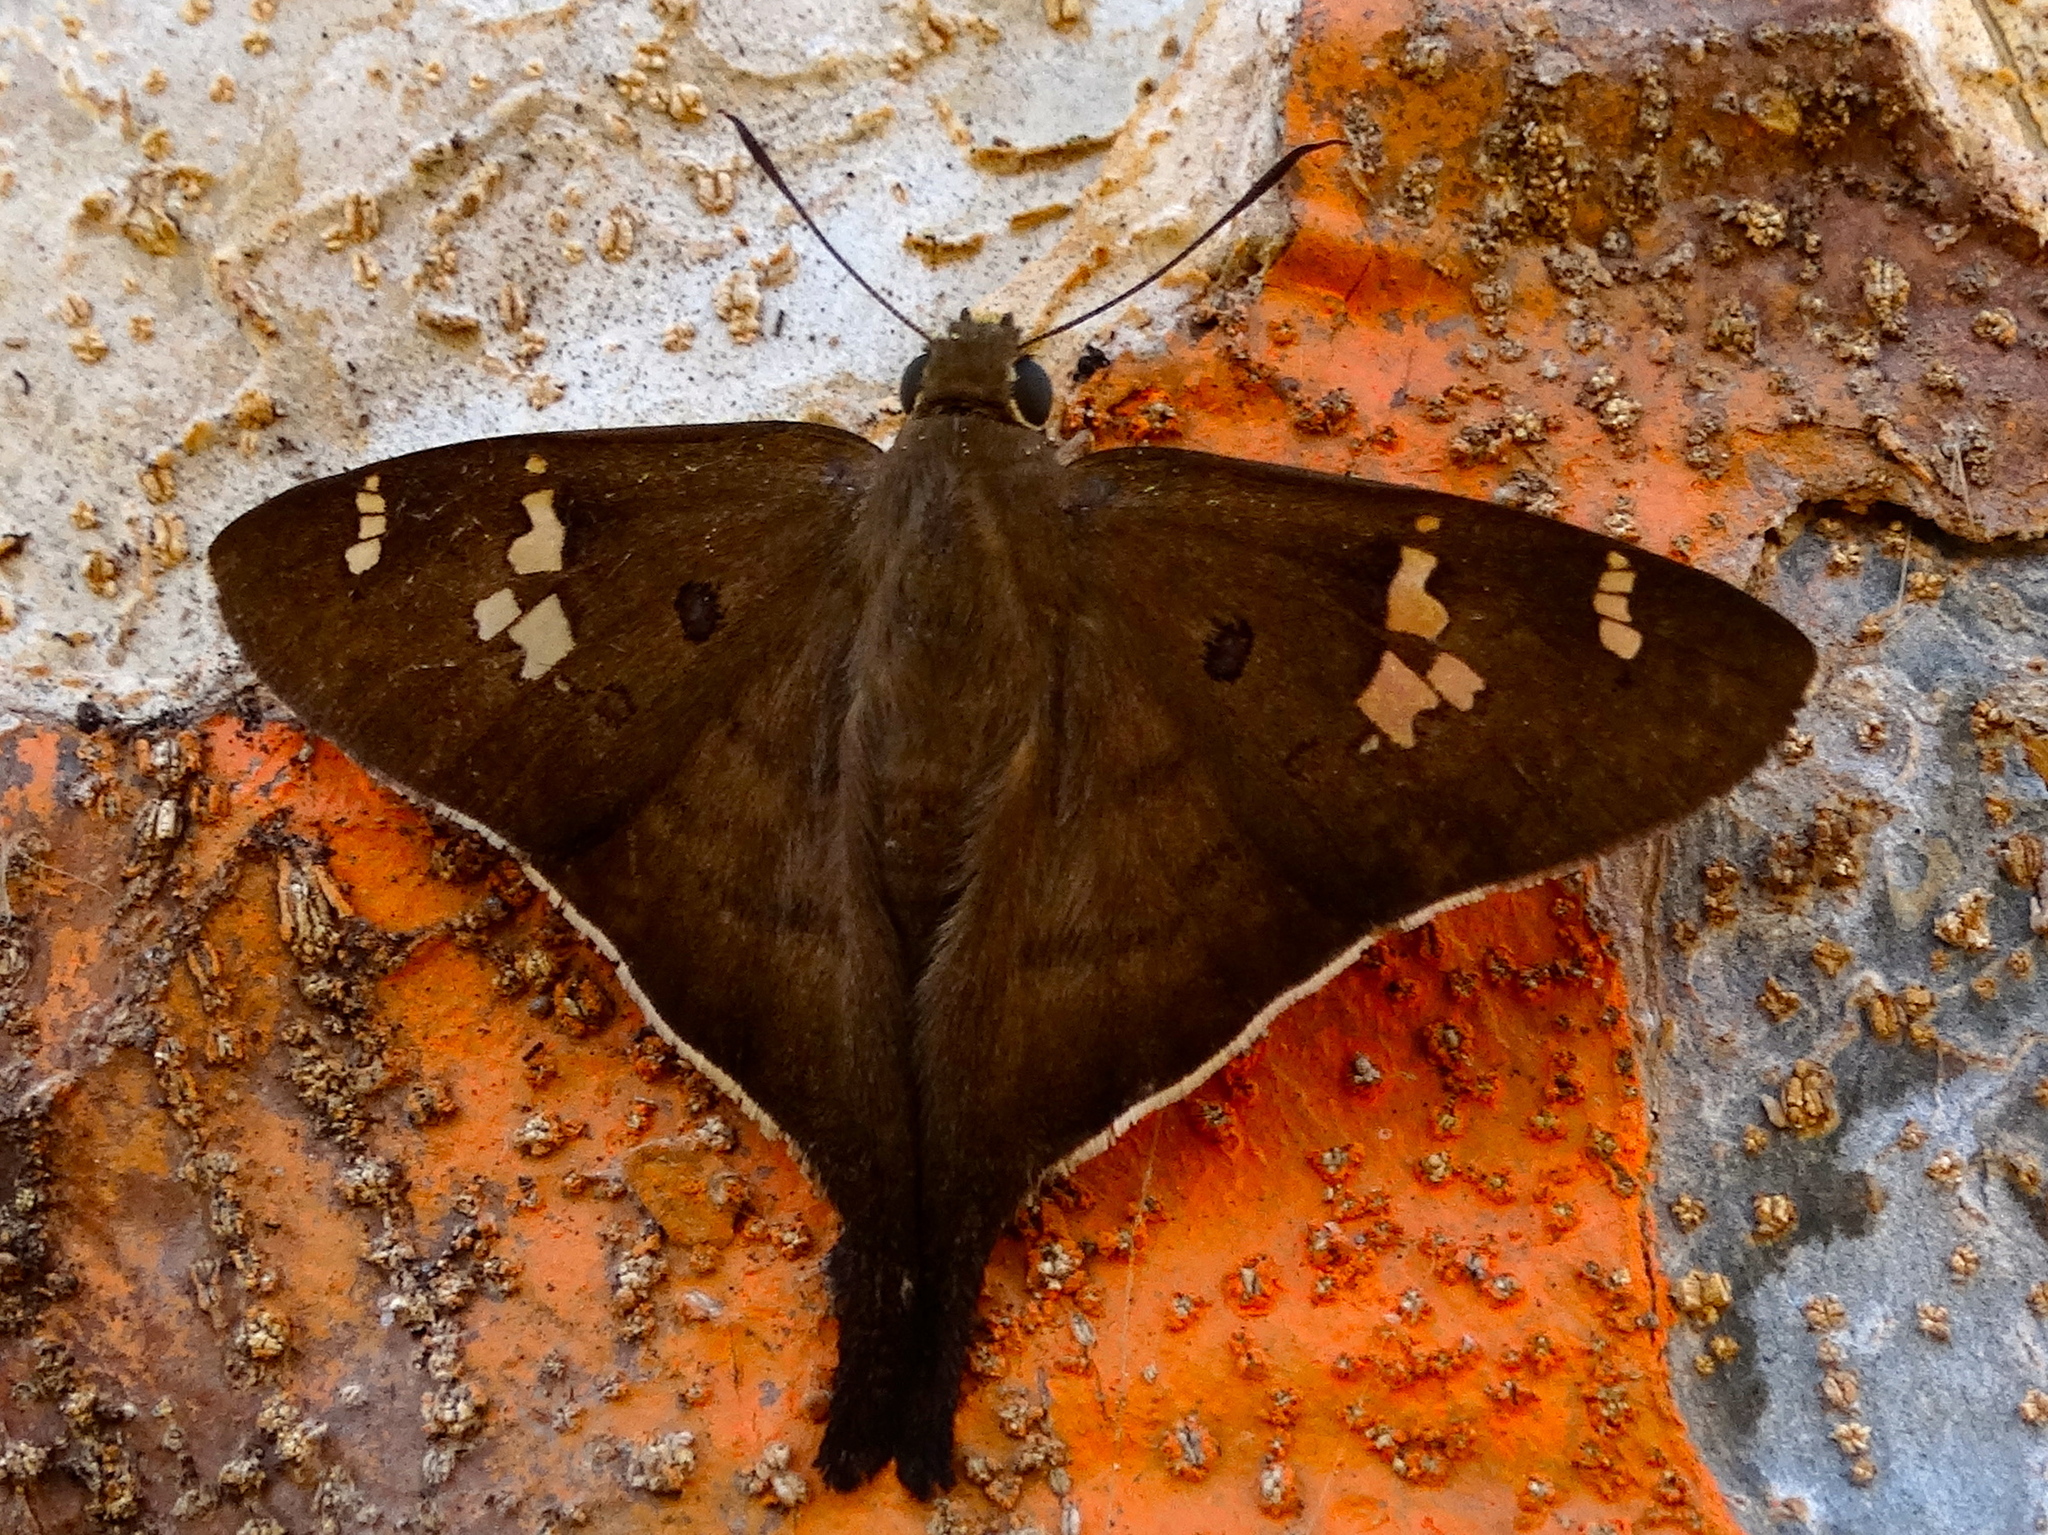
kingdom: Animalia
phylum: Arthropoda
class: Insecta
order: Lepidoptera
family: Hesperiidae
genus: Ectomis
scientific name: Ectomis
